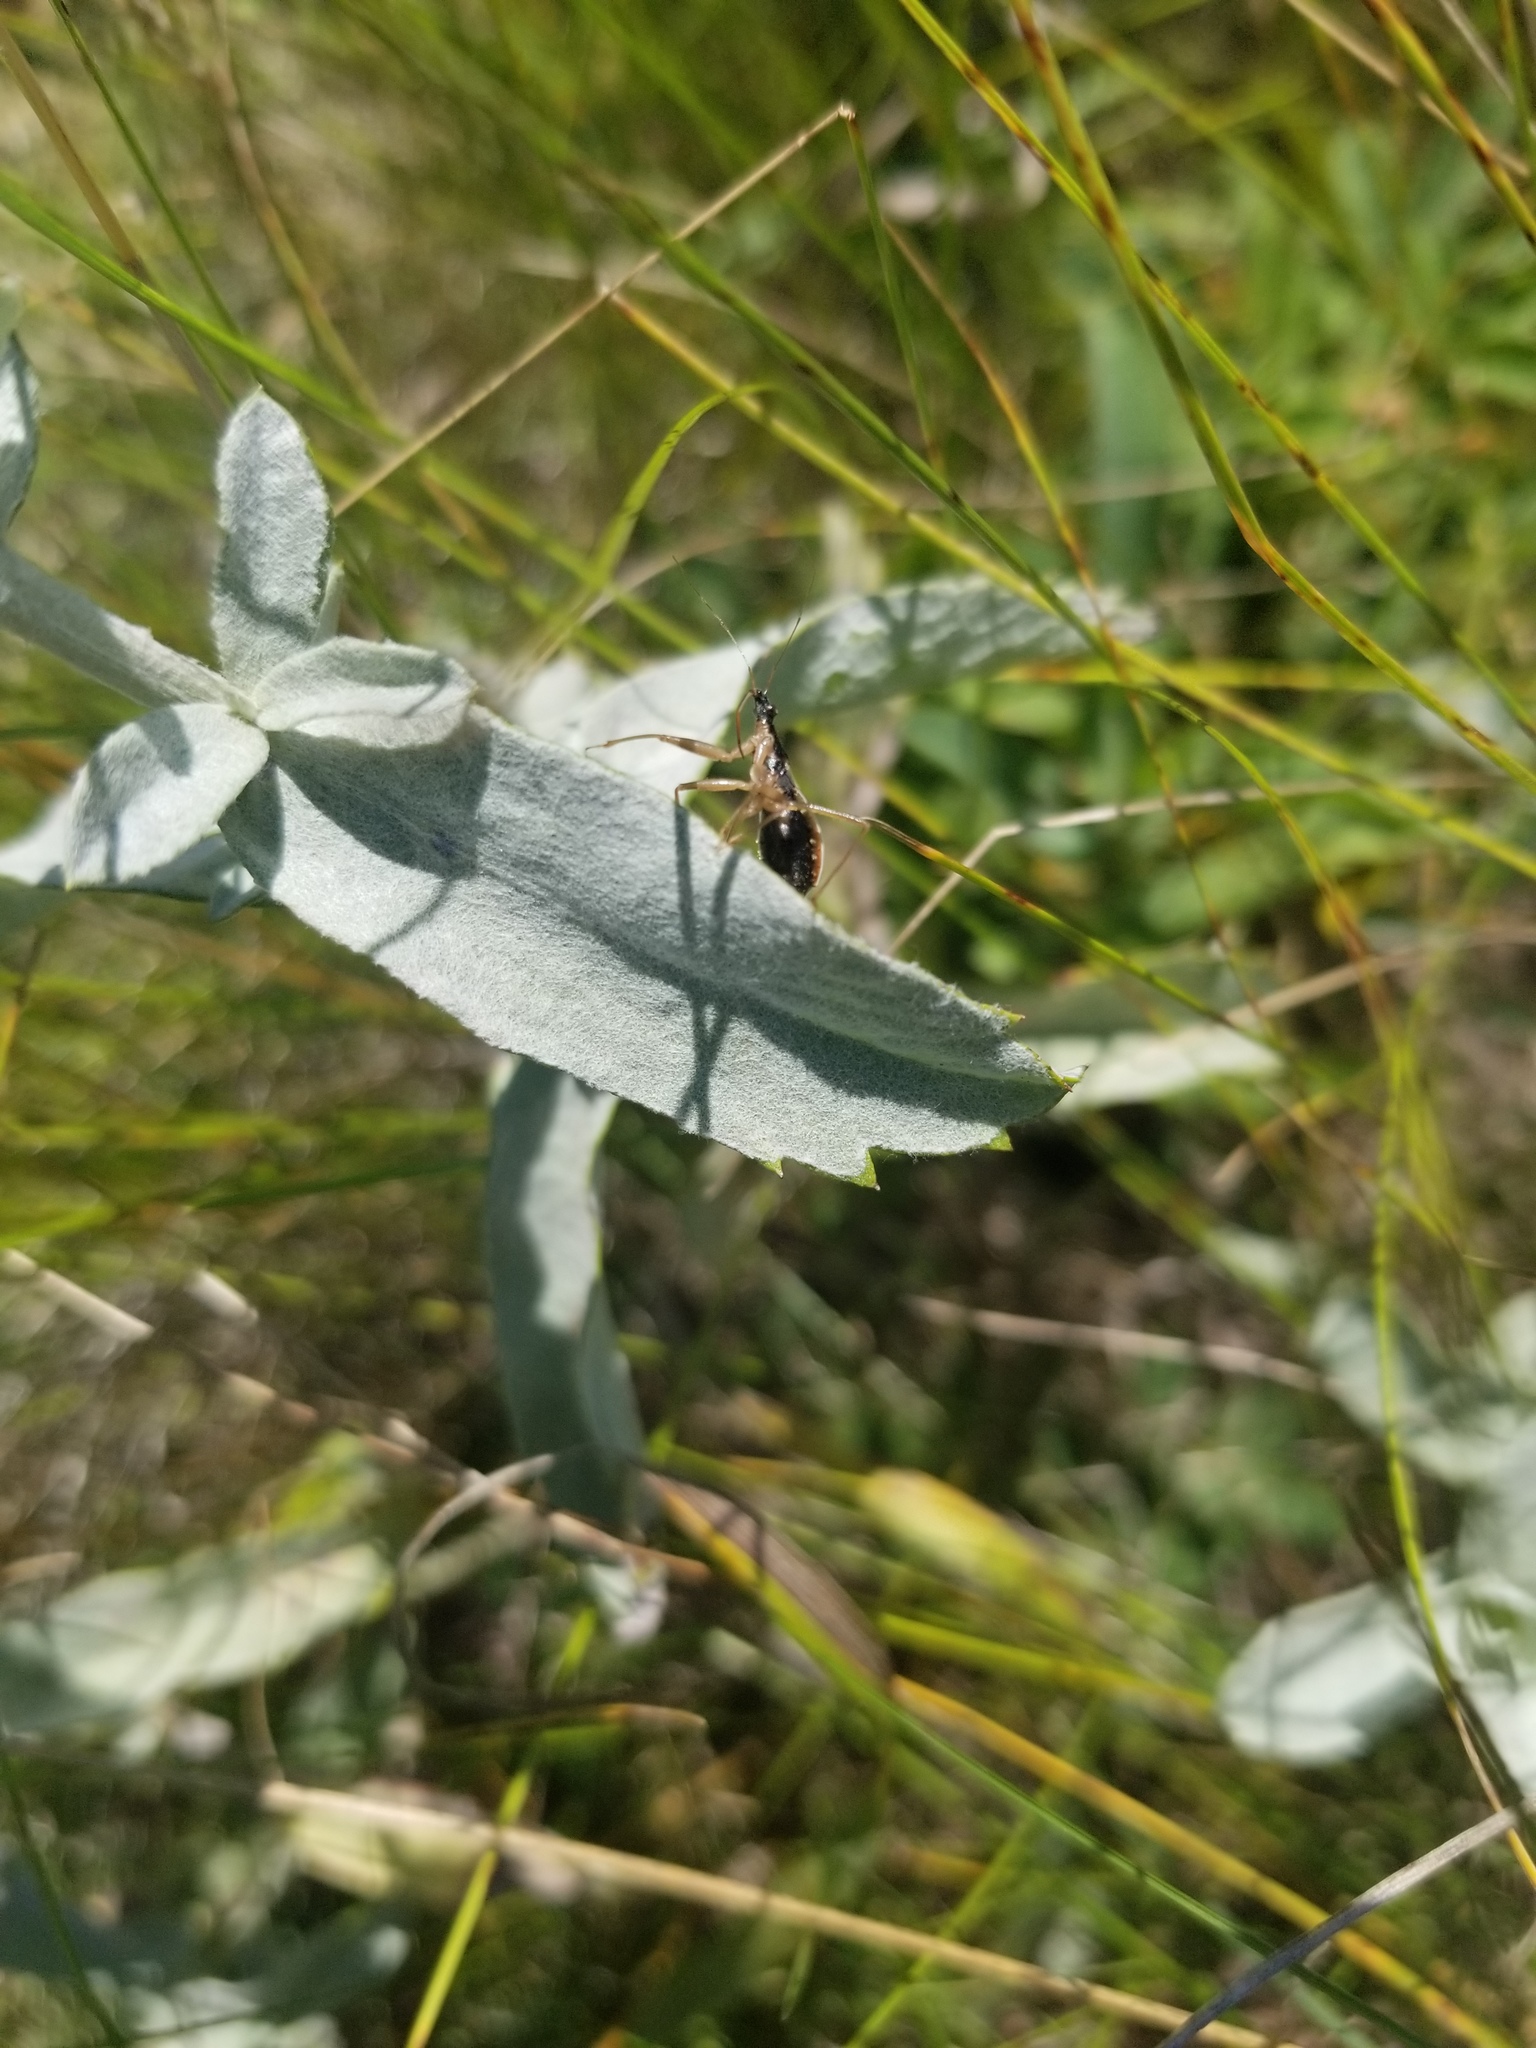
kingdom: Animalia
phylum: Arthropoda
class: Insecta
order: Hemiptera
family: Nabidae
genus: Nabis
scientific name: Nabis
